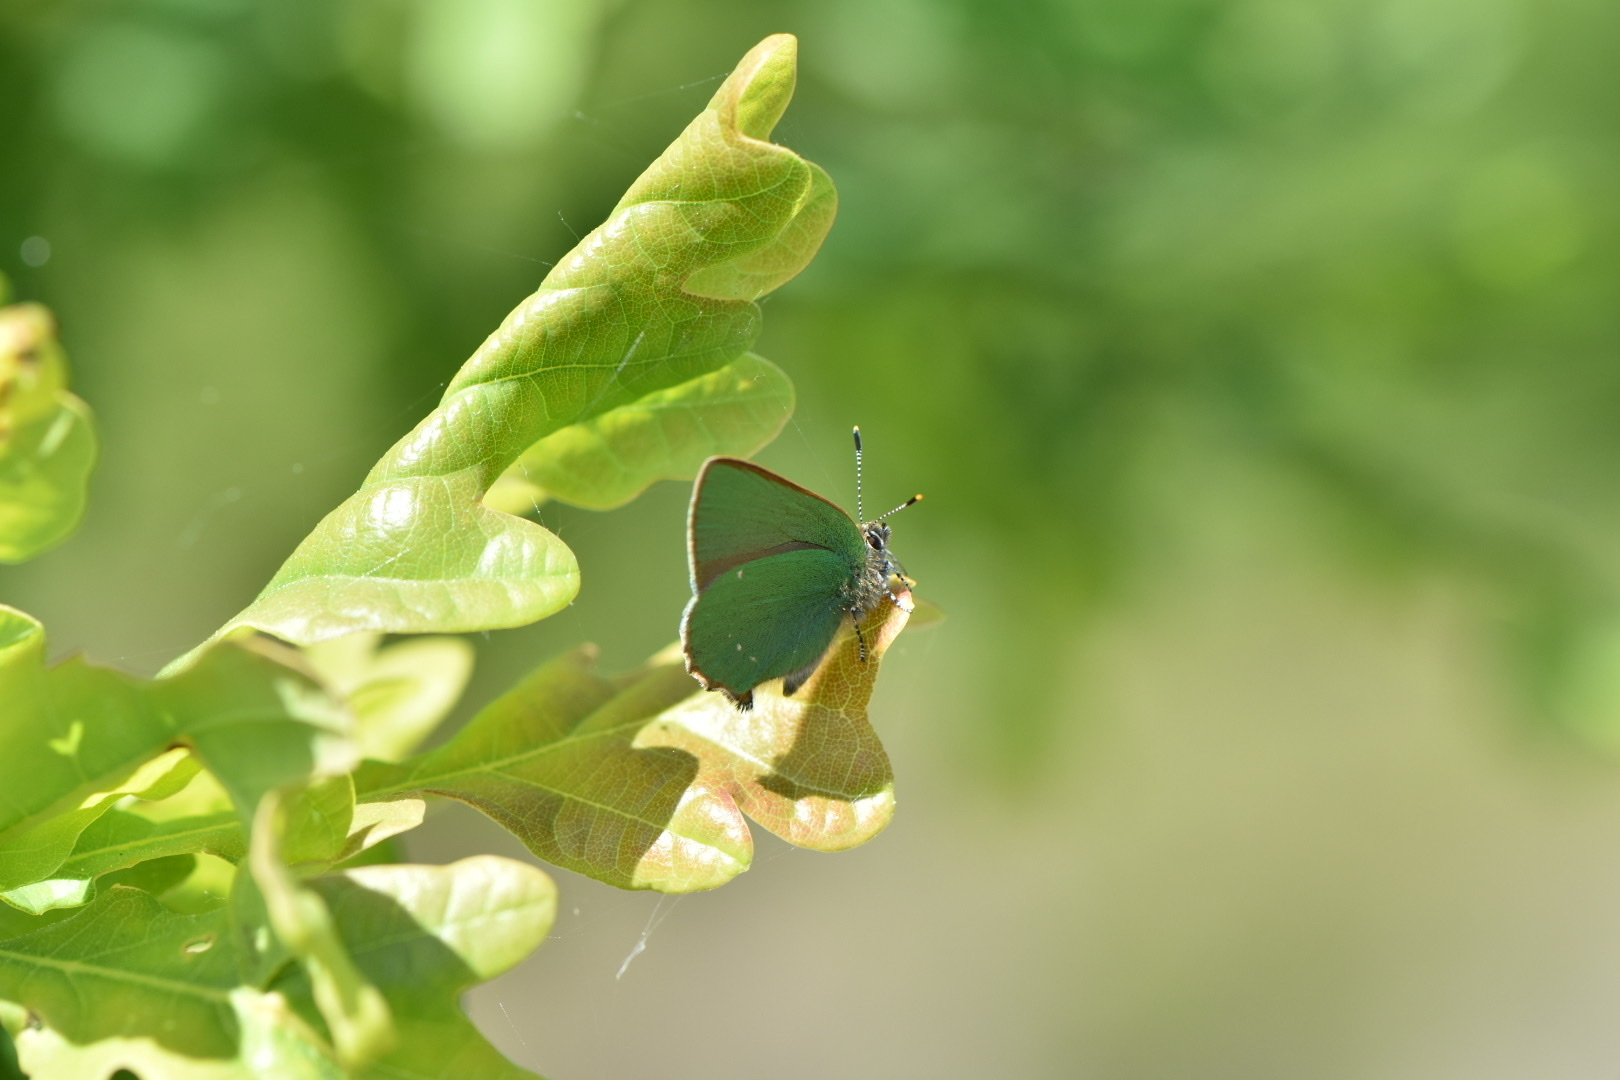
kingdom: Animalia
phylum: Arthropoda
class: Insecta
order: Lepidoptera
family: Lycaenidae
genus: Callophrys
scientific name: Callophrys rubi
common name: Green hairstreak
